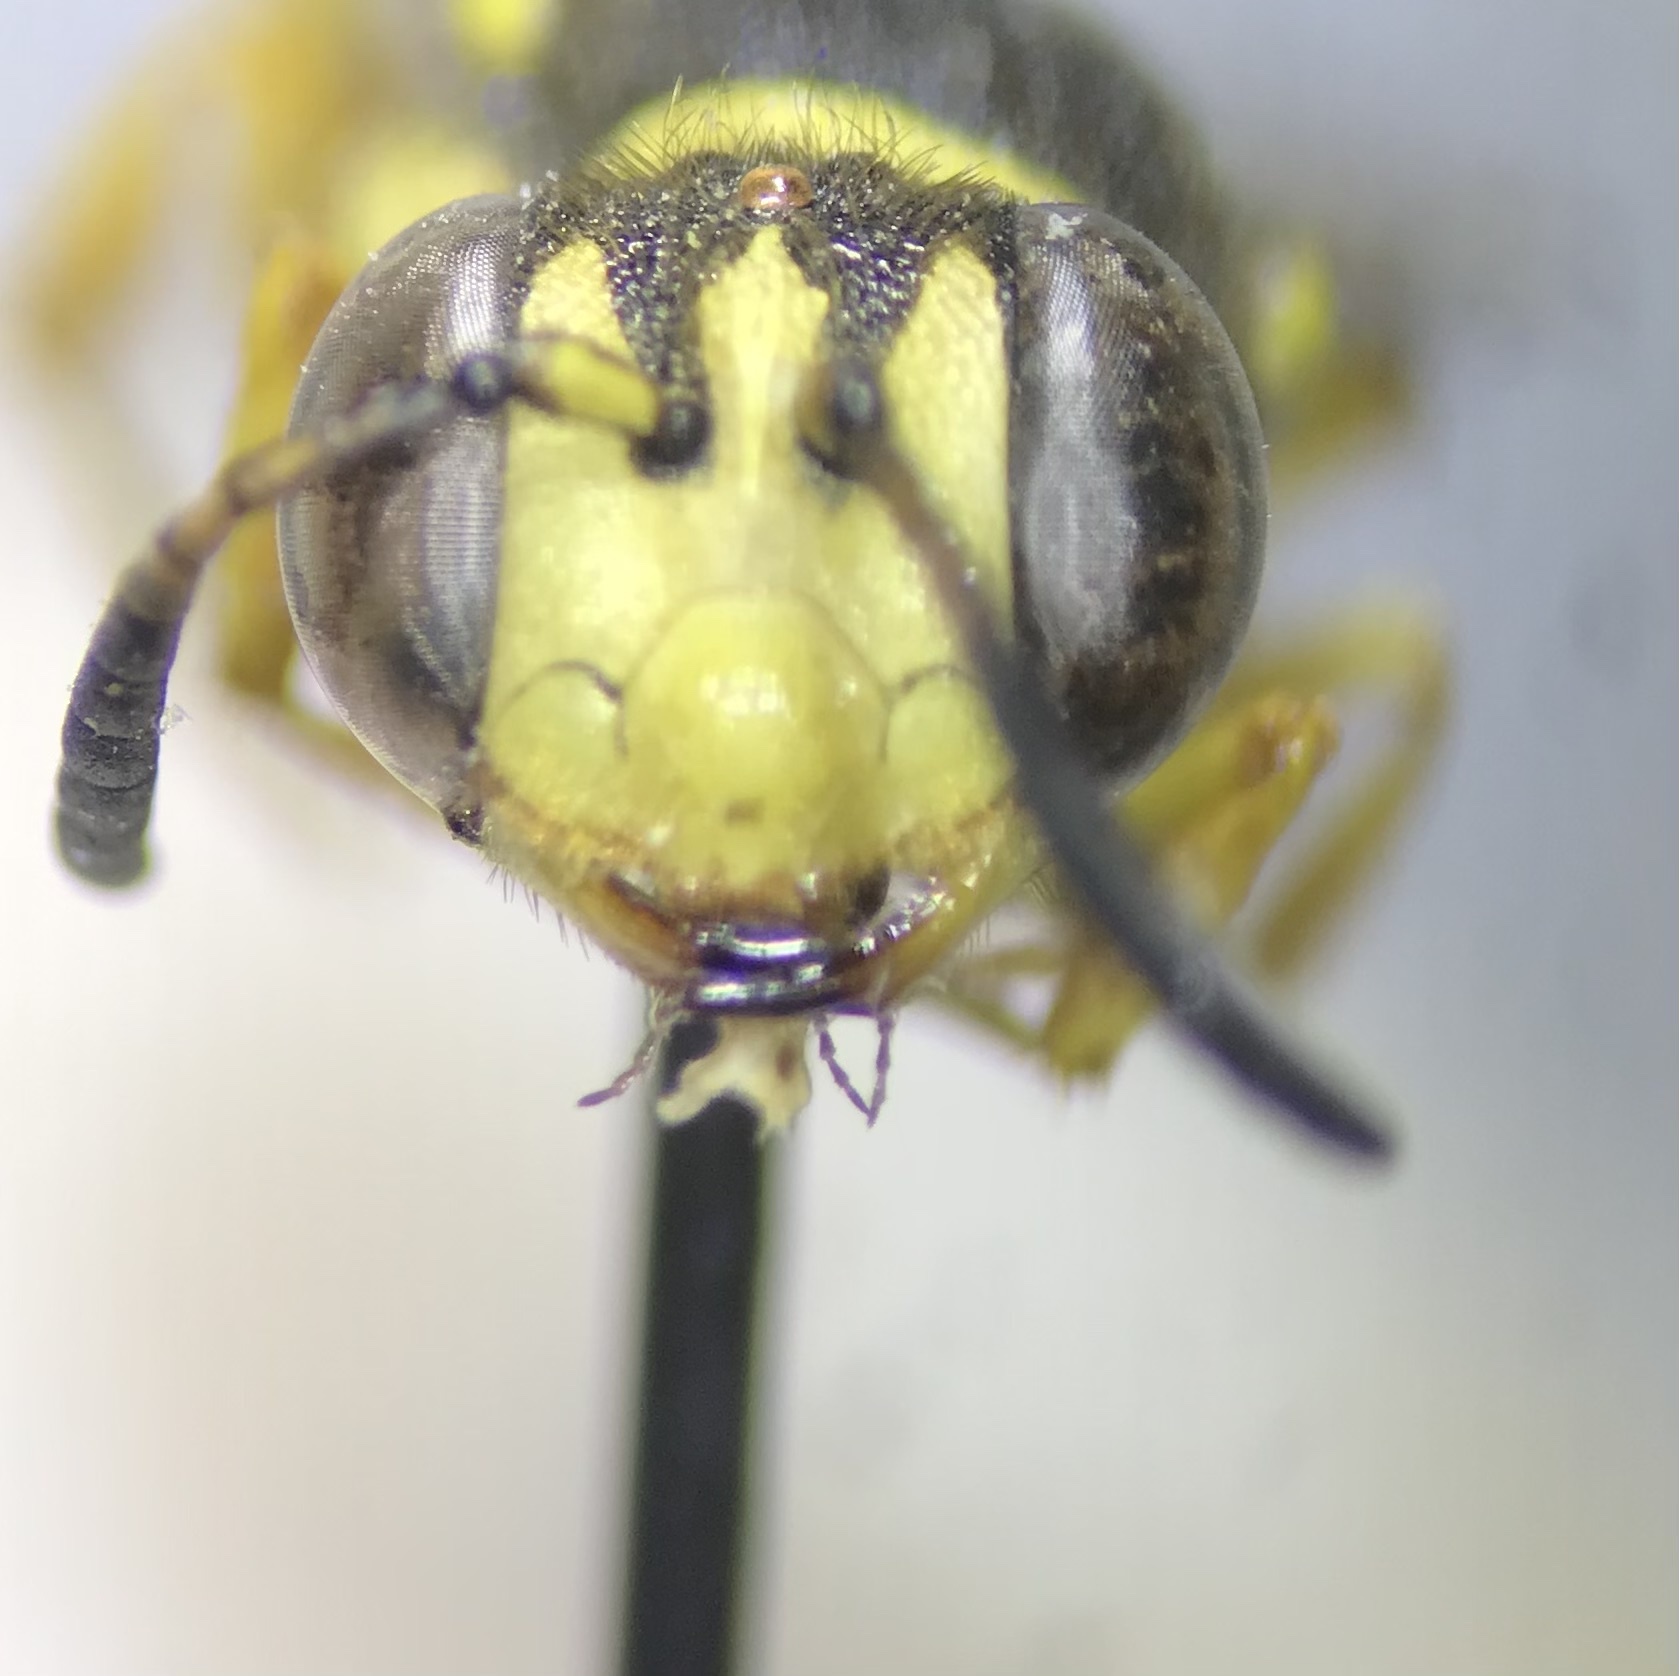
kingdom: Animalia
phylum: Arthropoda
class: Insecta
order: Hymenoptera
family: Crabronidae
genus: Eucerceris
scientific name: Eucerceris provancheri
